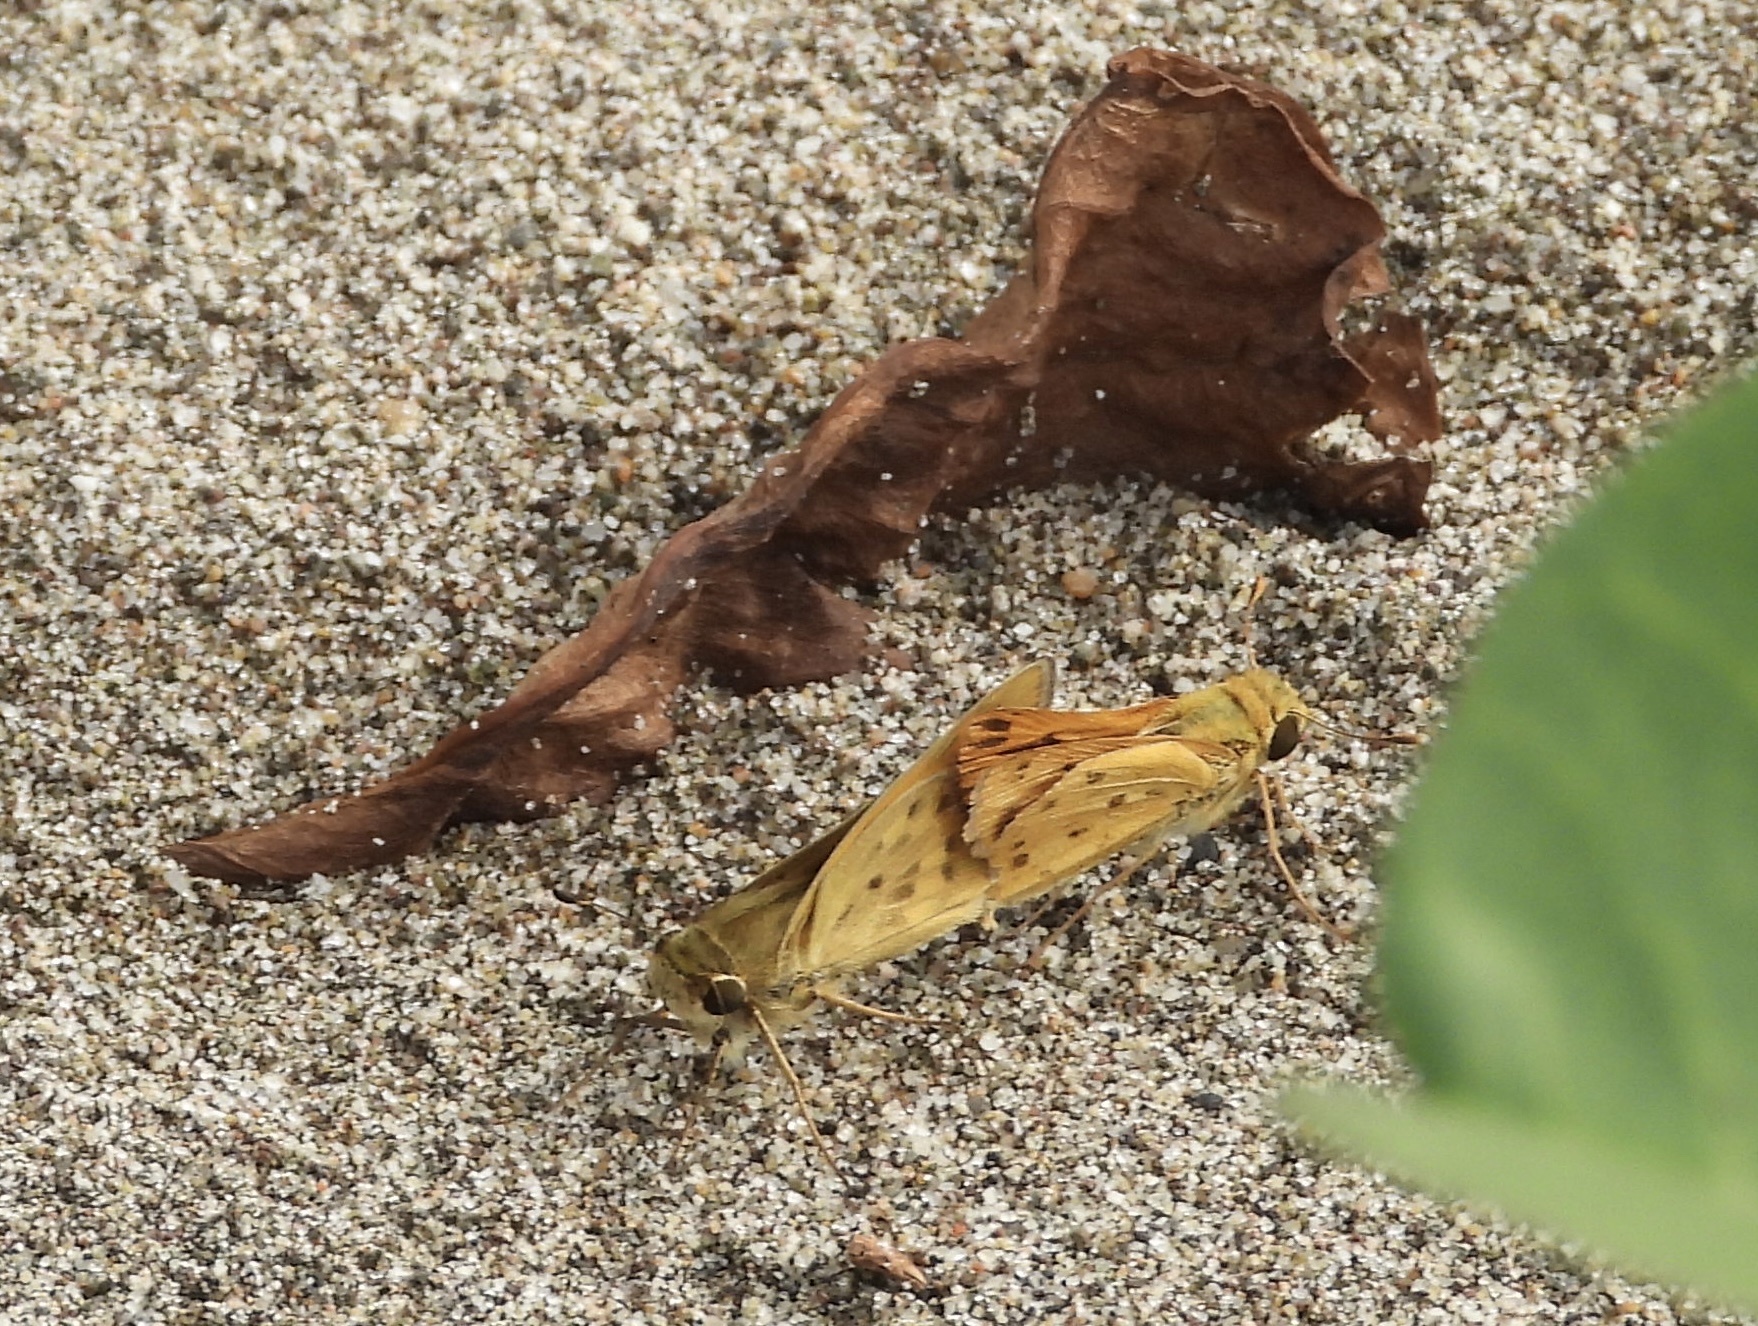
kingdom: Animalia
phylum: Arthropoda
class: Insecta
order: Lepidoptera
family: Hesperiidae
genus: Hylephila
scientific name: Hylephila phyleus
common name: Fiery skipper
